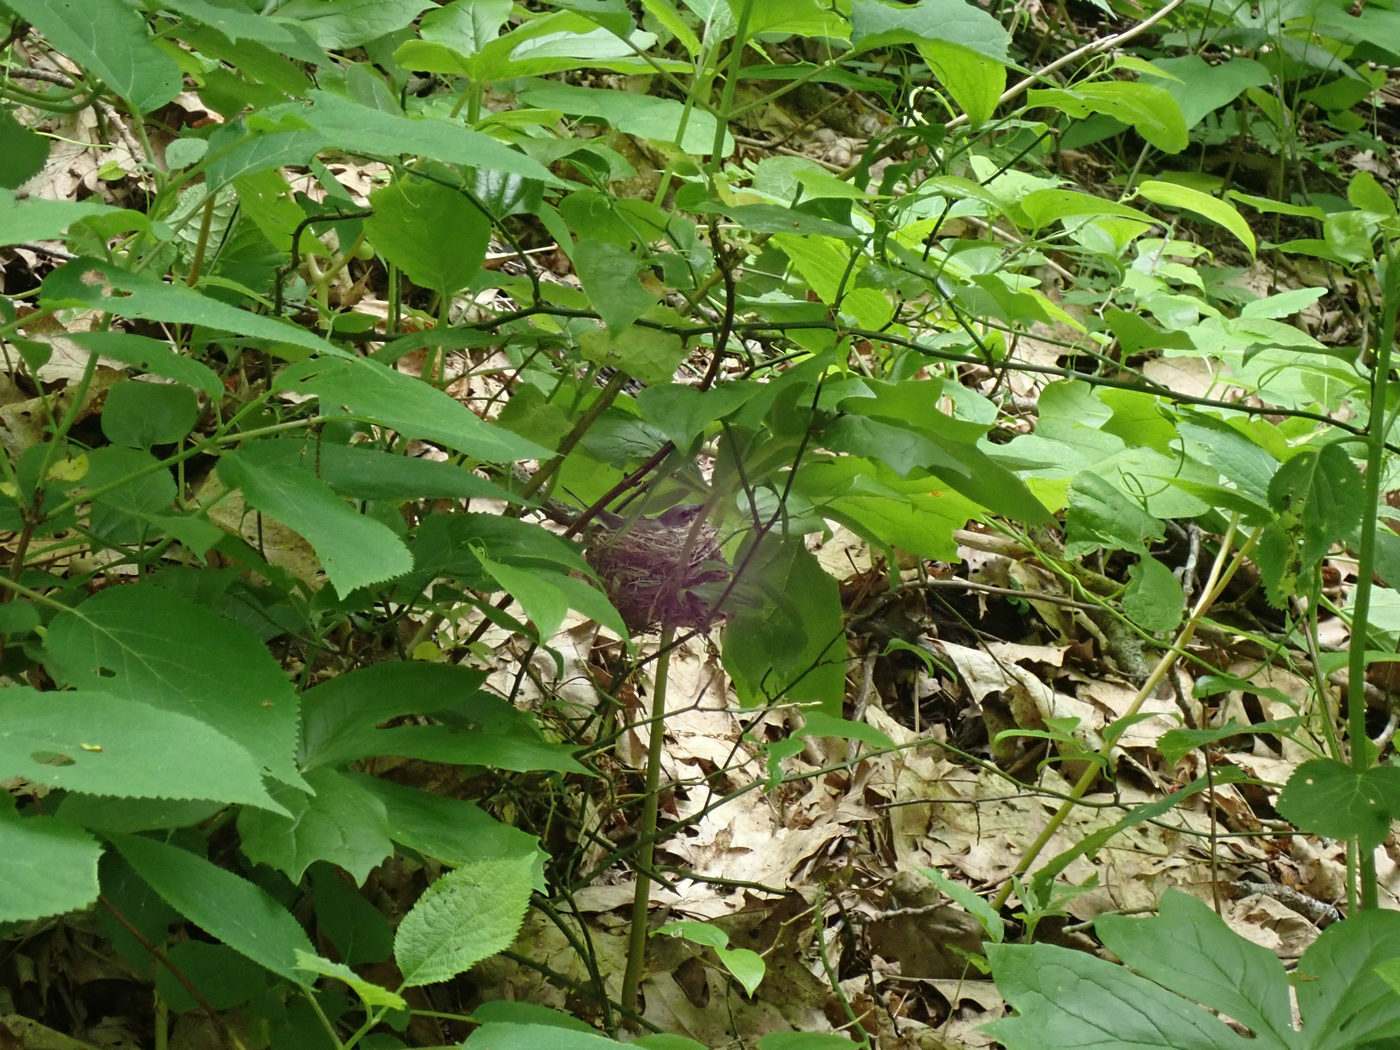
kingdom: Animalia
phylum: Chordata
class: Aves
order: Passeriformes
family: Parulidae
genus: Setophaga
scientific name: Setophaga caerulescens
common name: Black-throated blue warbler
